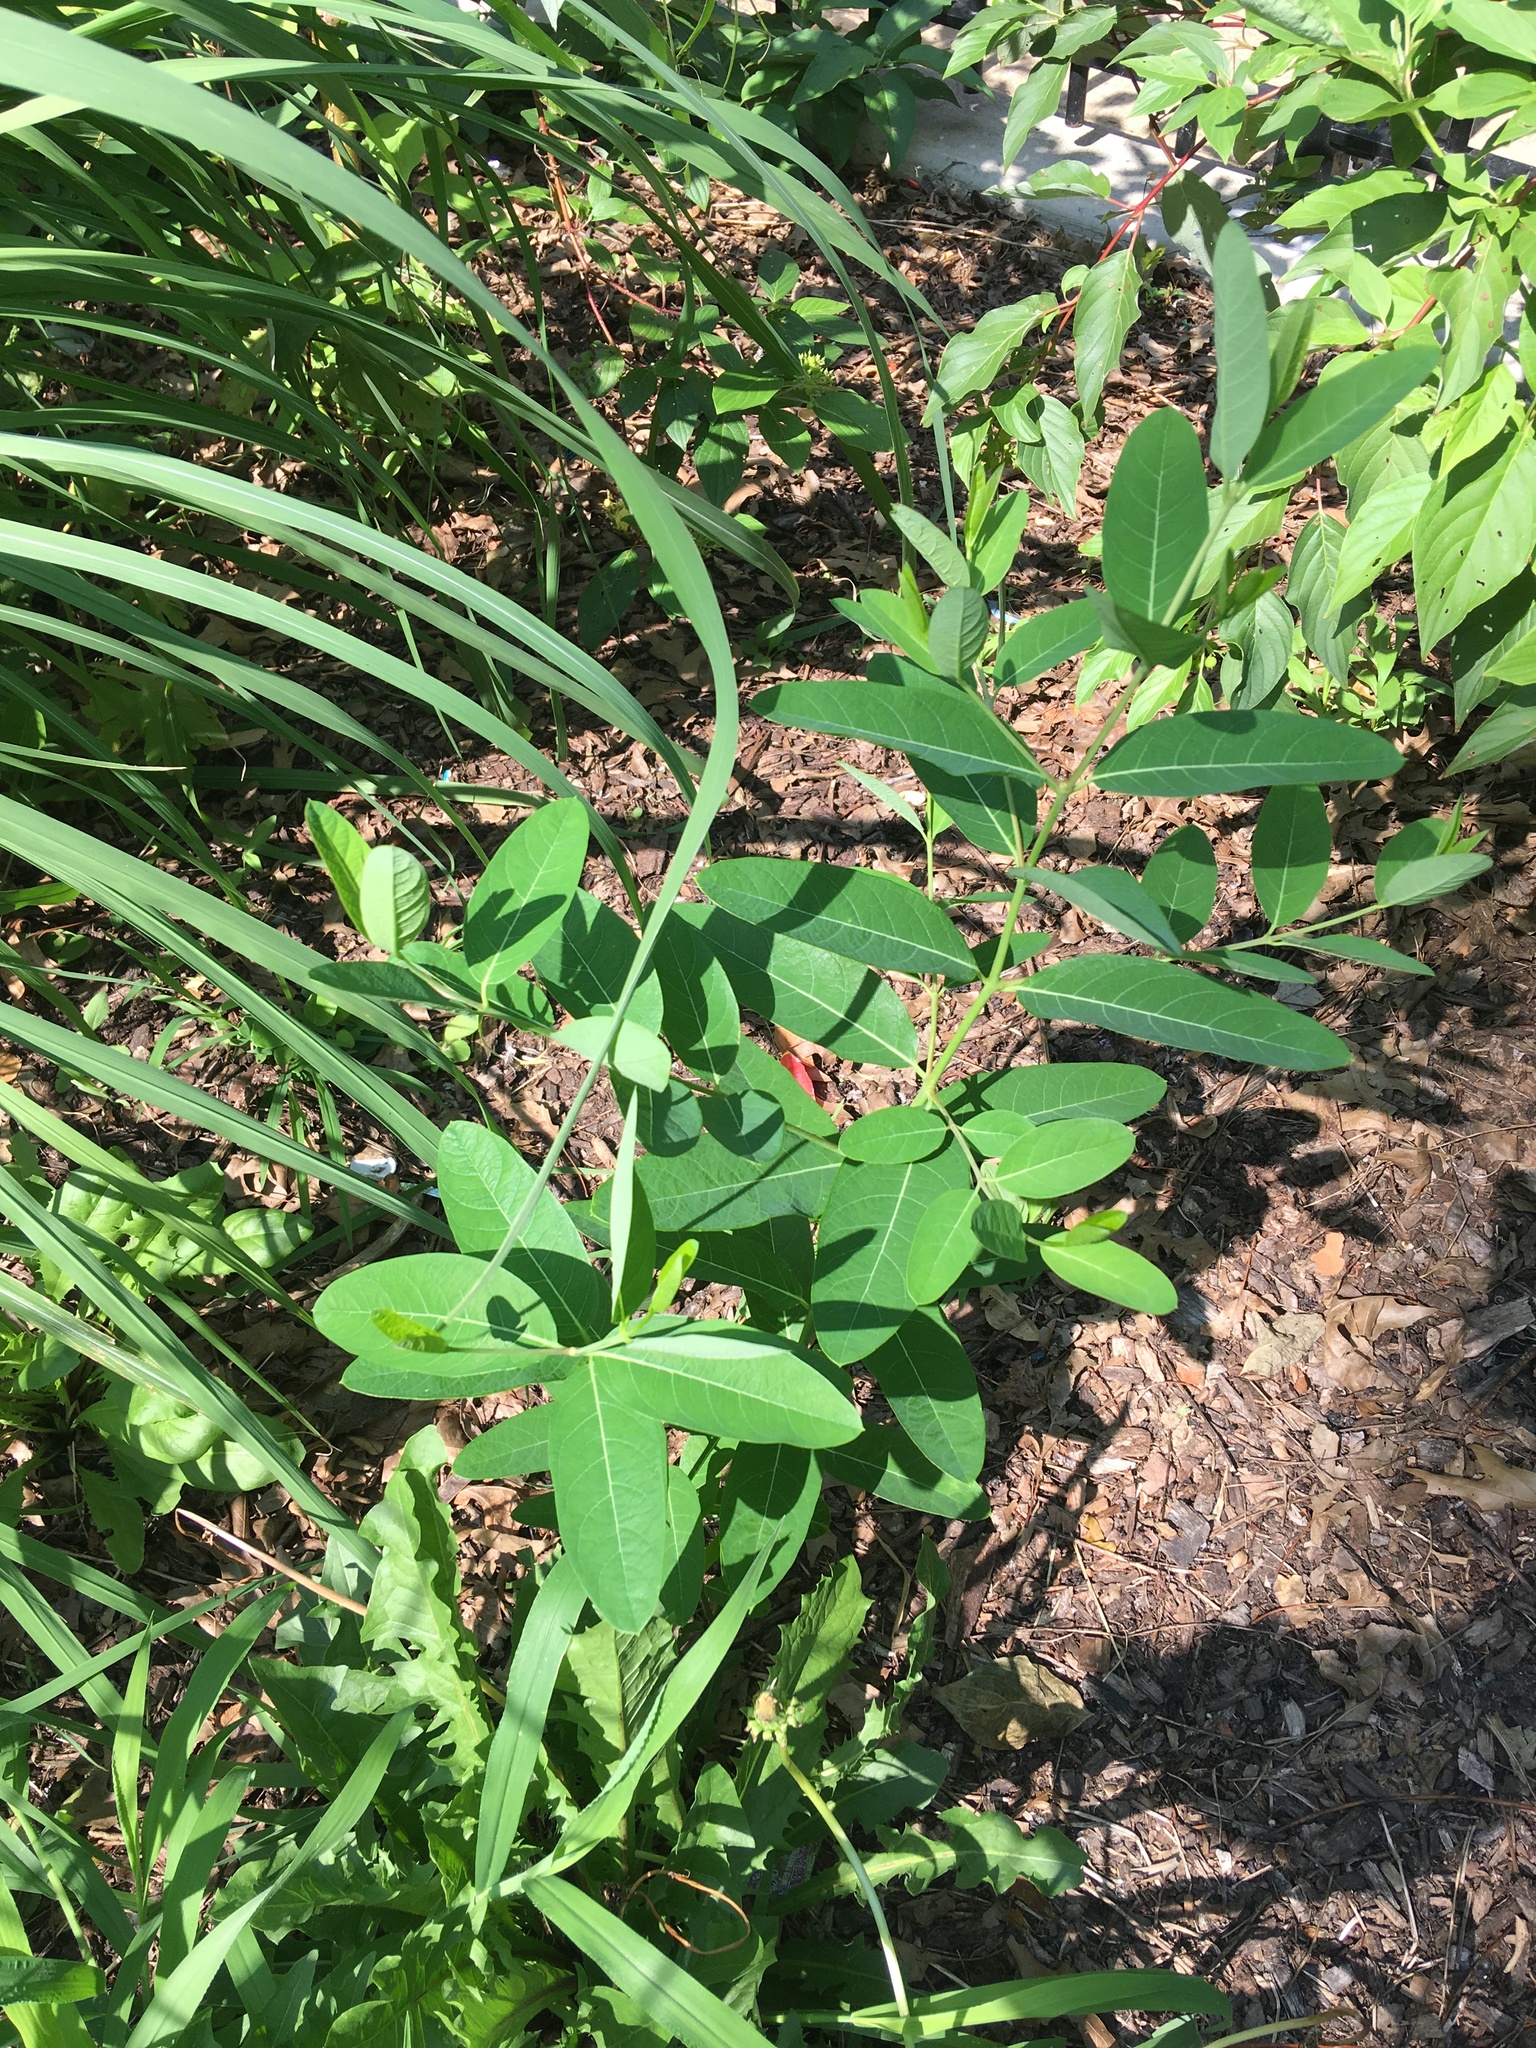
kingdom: Plantae
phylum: Tracheophyta
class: Magnoliopsida
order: Gentianales
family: Apocynaceae
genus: Apocynum
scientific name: Apocynum cannabinum
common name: Hemp dogbane
